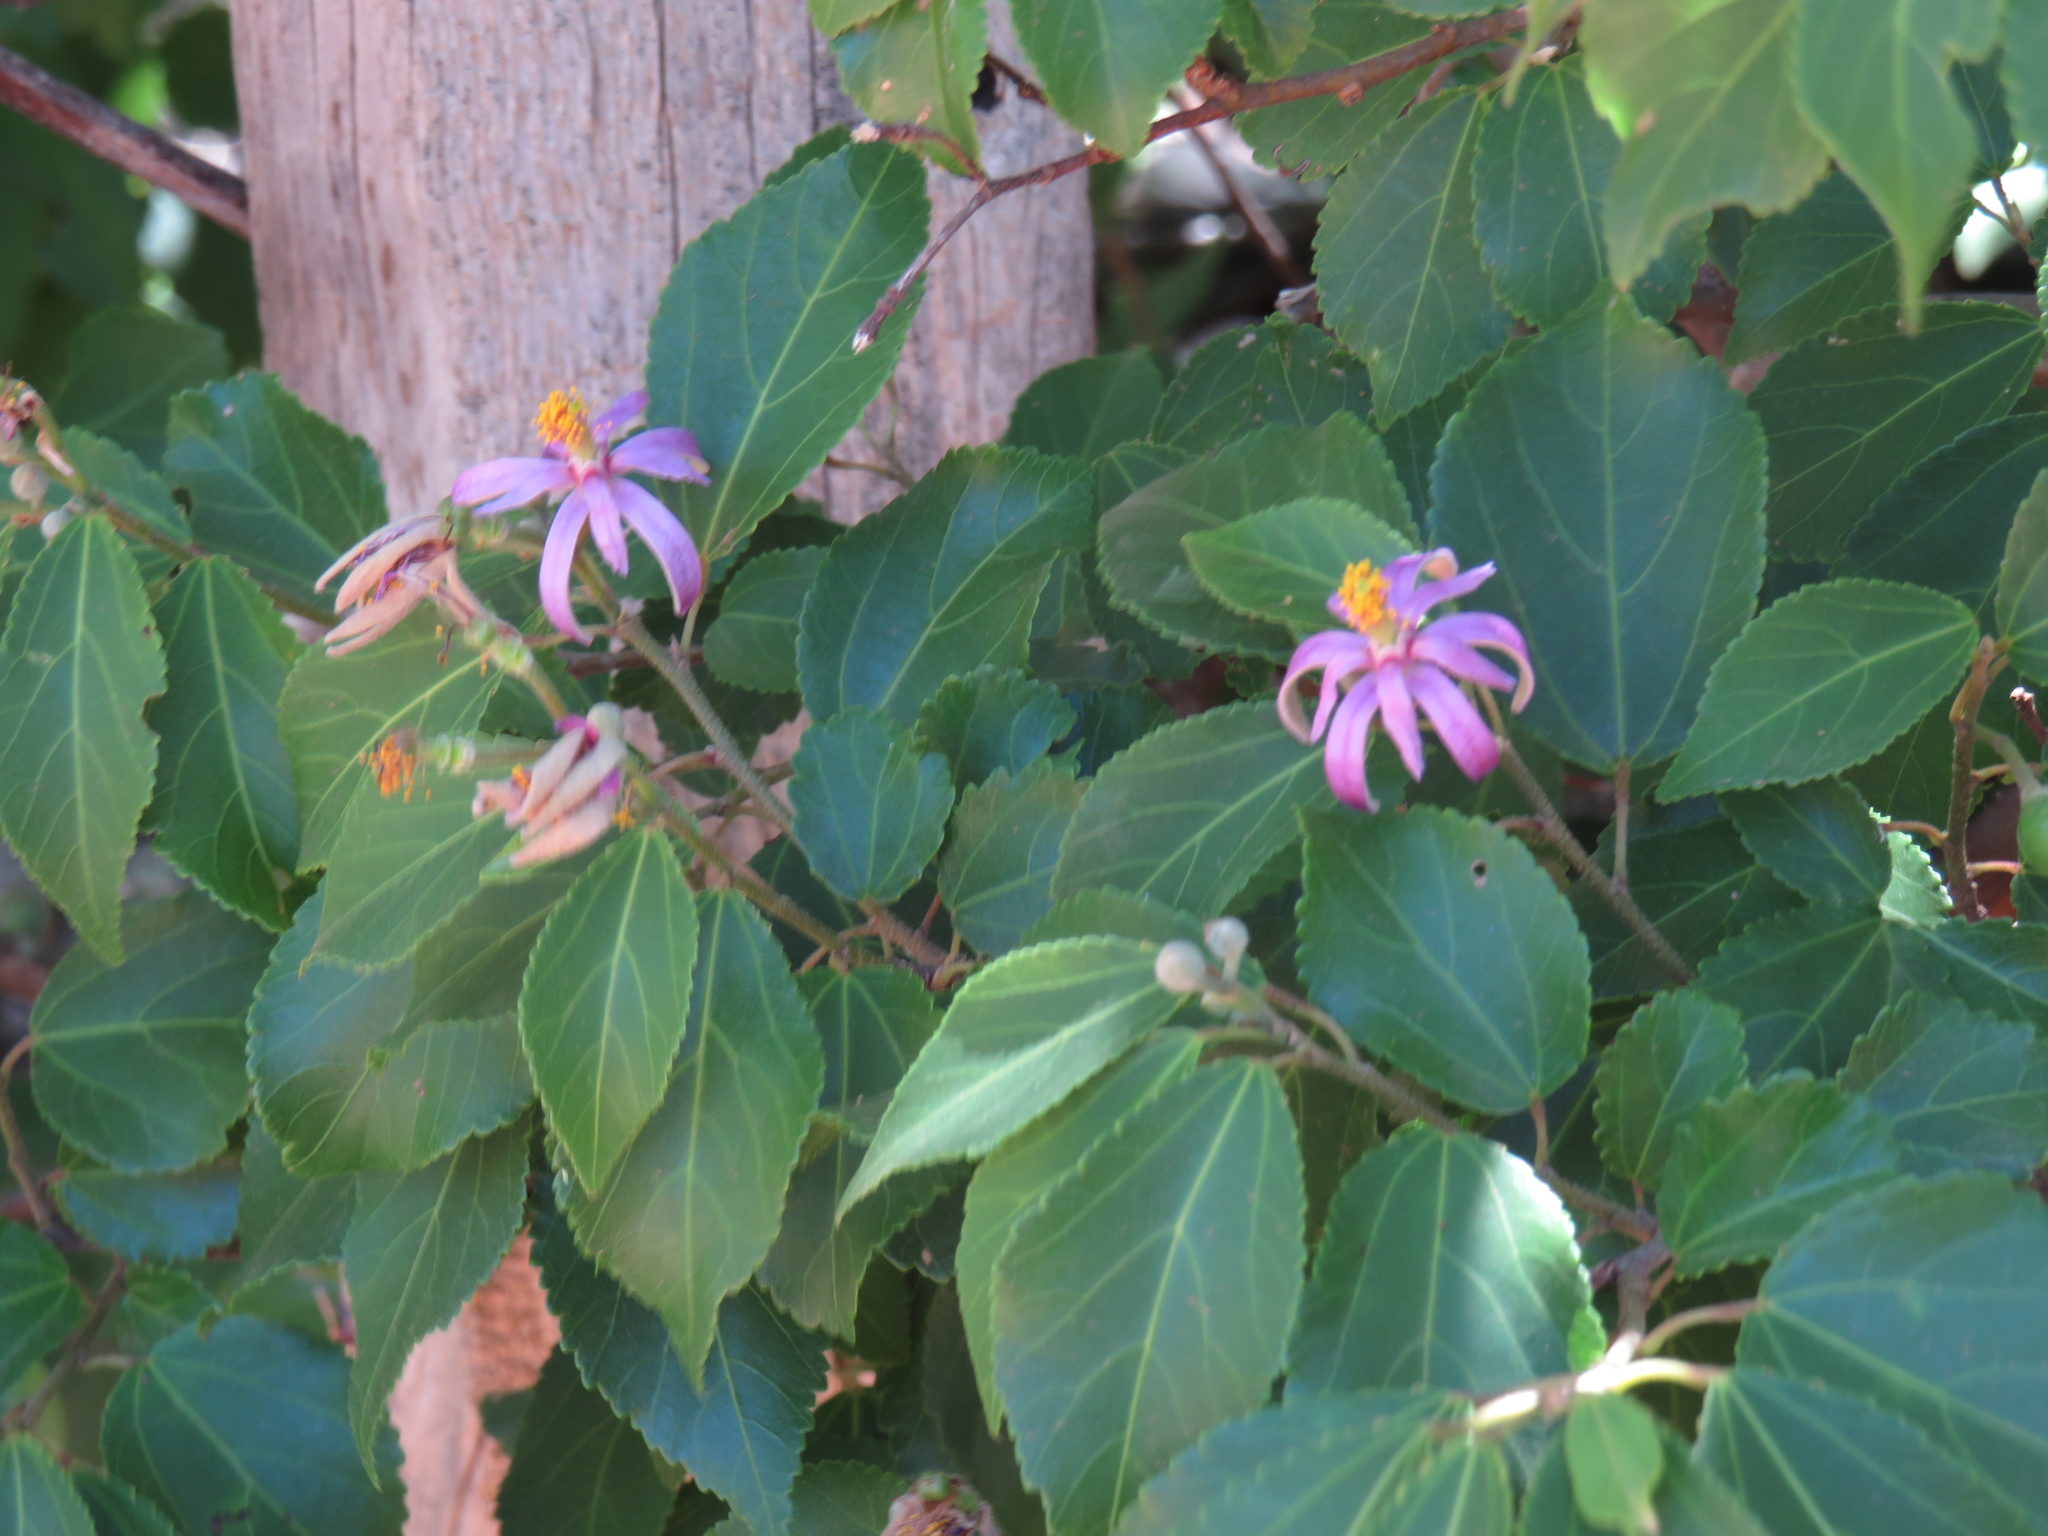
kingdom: Plantae
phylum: Tracheophyta
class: Magnoliopsida
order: Malvales
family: Malvaceae
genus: Grewia
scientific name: Grewia occidentalis
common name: Crossberry
